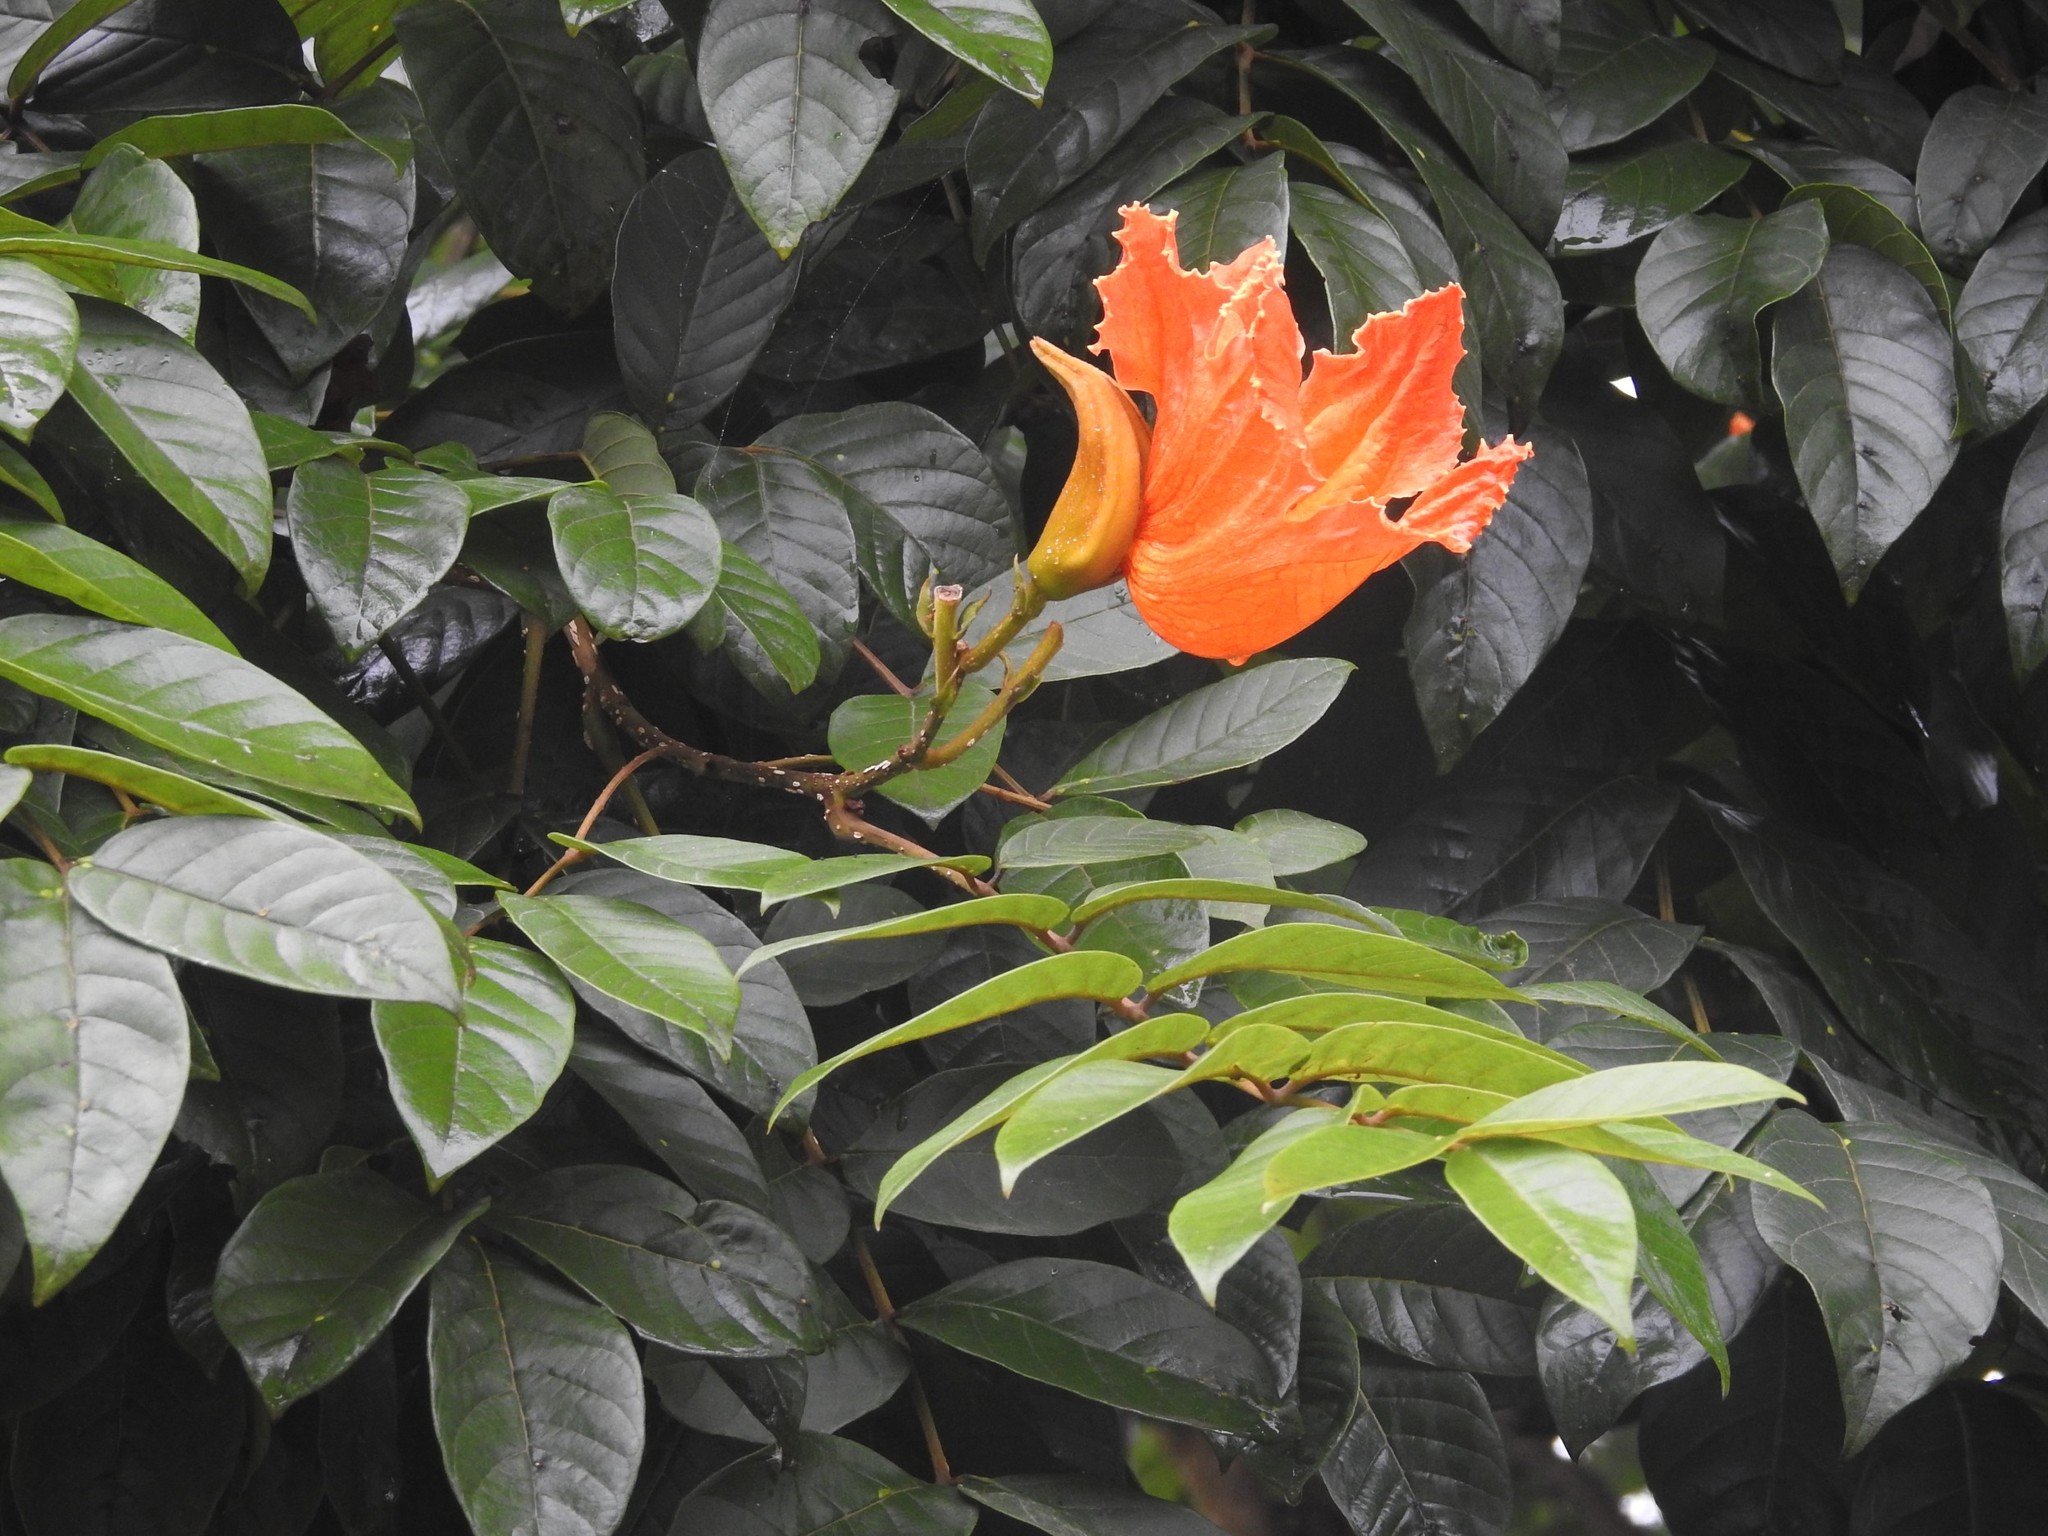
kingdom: Plantae
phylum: Tracheophyta
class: Magnoliopsida
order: Lamiales
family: Bignoniaceae
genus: Spathodea
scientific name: Spathodea campanulata
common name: African tuliptree
